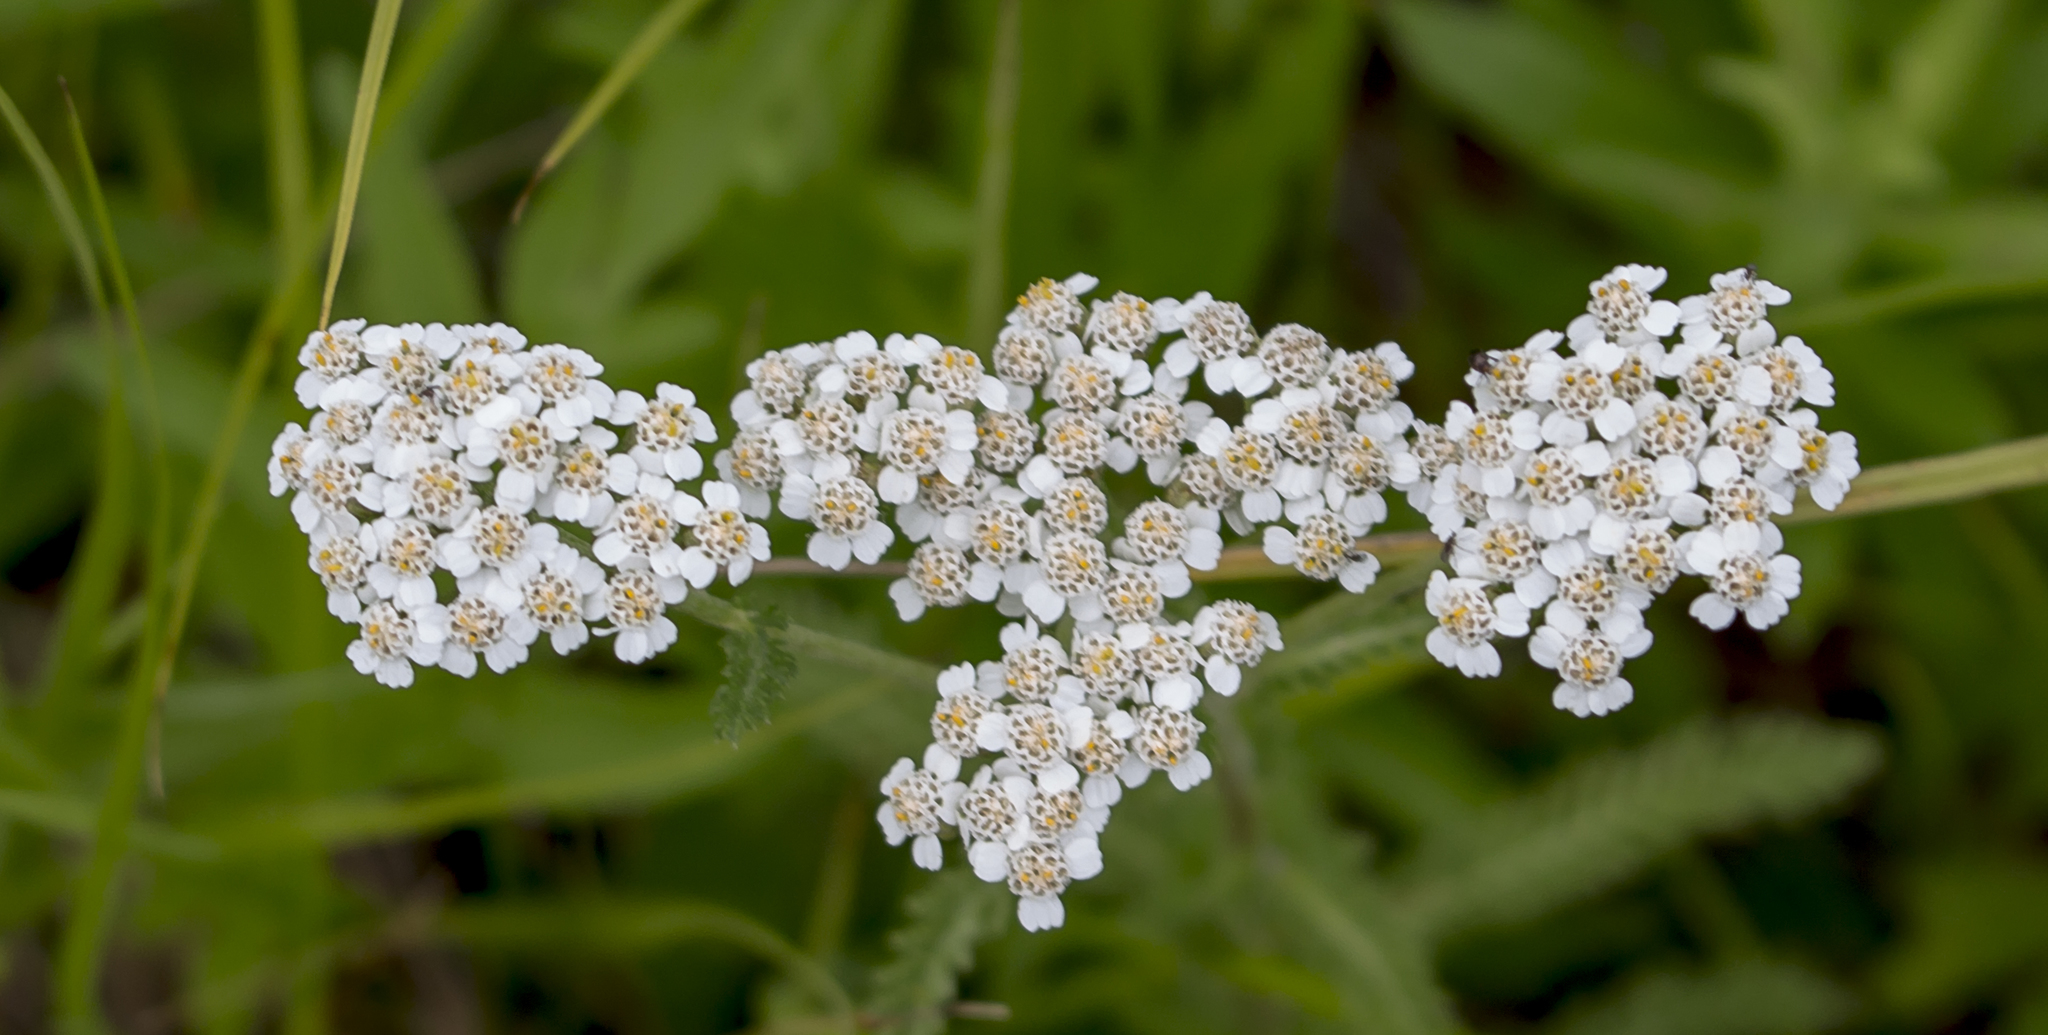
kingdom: Plantae
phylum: Tracheophyta
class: Magnoliopsida
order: Asterales
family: Asteraceae
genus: Achillea
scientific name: Achillea millefolium
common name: Yarrow
